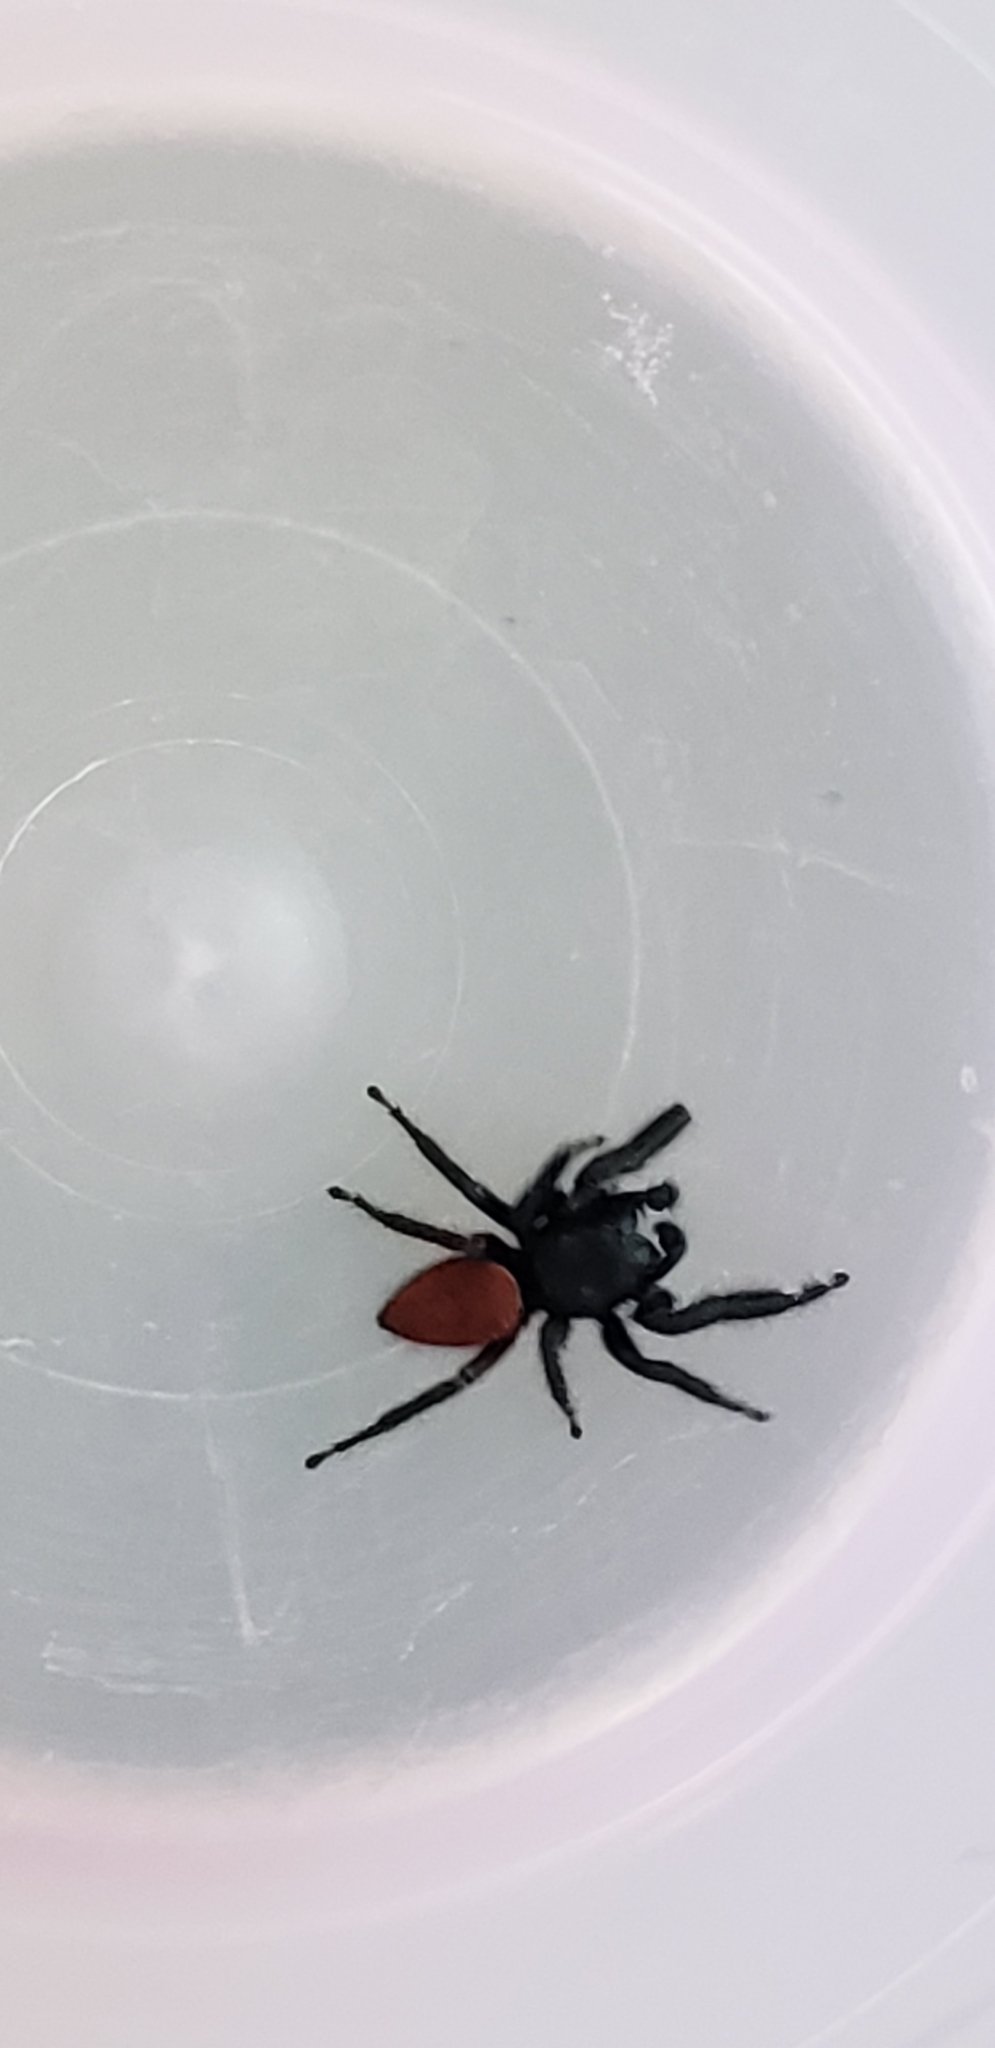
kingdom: Animalia
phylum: Arthropoda
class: Arachnida
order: Araneae
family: Salticidae
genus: Phidippus
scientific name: Phidippus carneus
